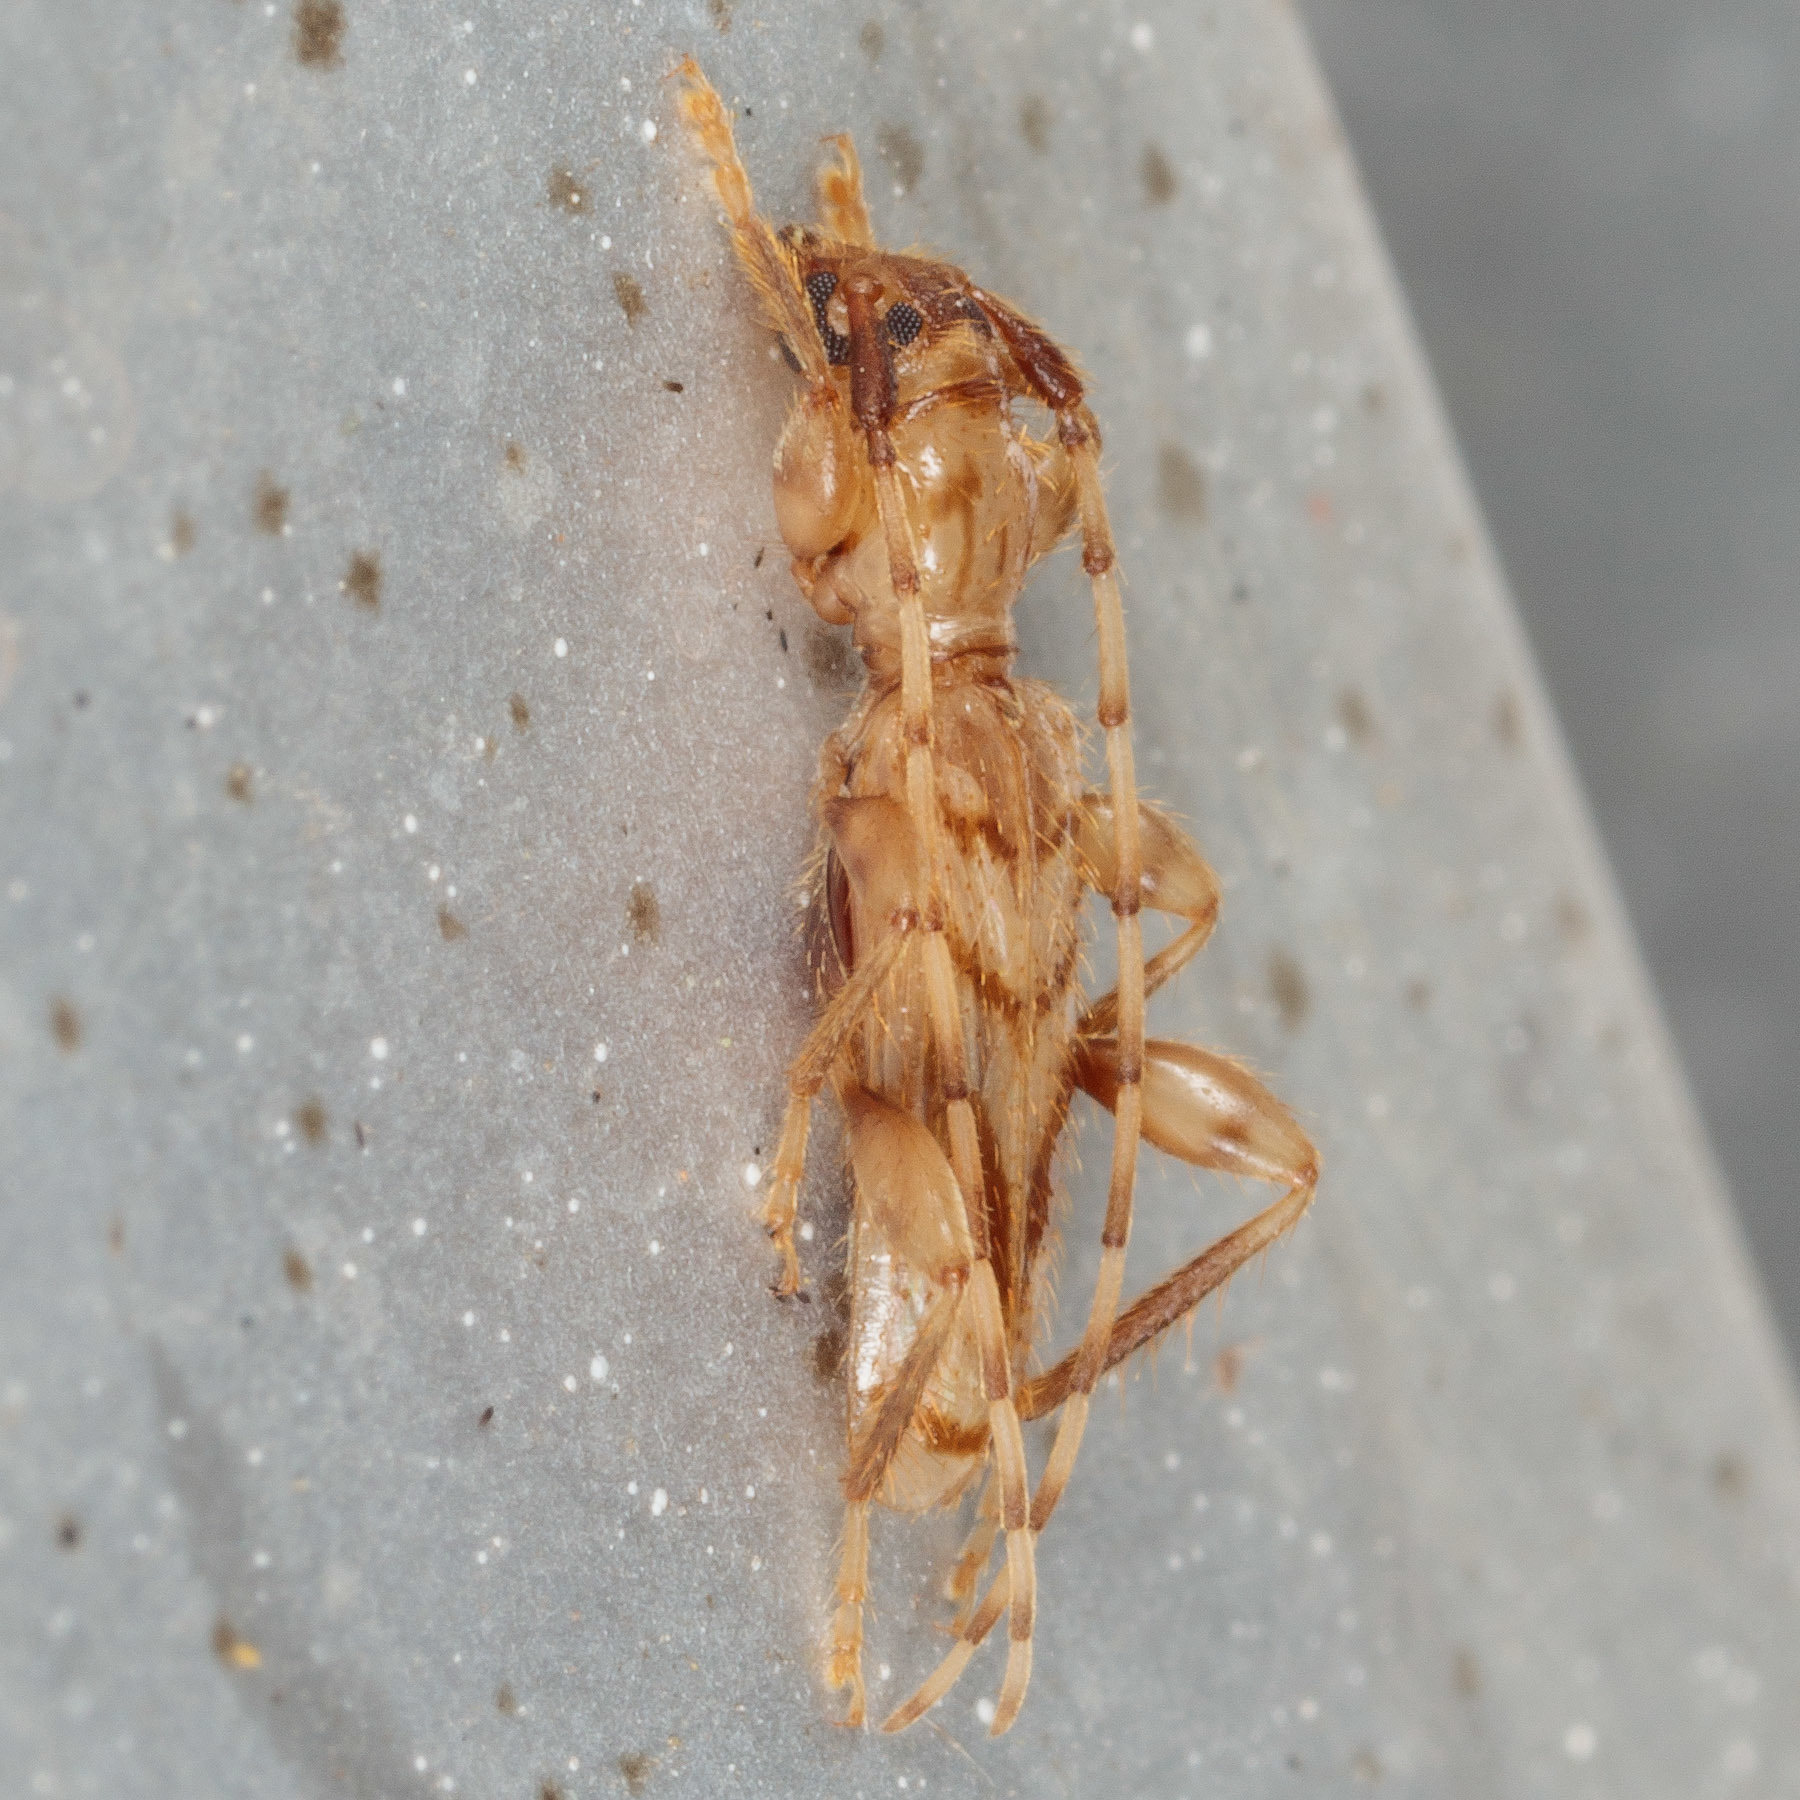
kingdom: Animalia
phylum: Arthropoda
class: Insecta
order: Coleoptera
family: Cerambycidae
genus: Obrium
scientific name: Obrium maculatum
